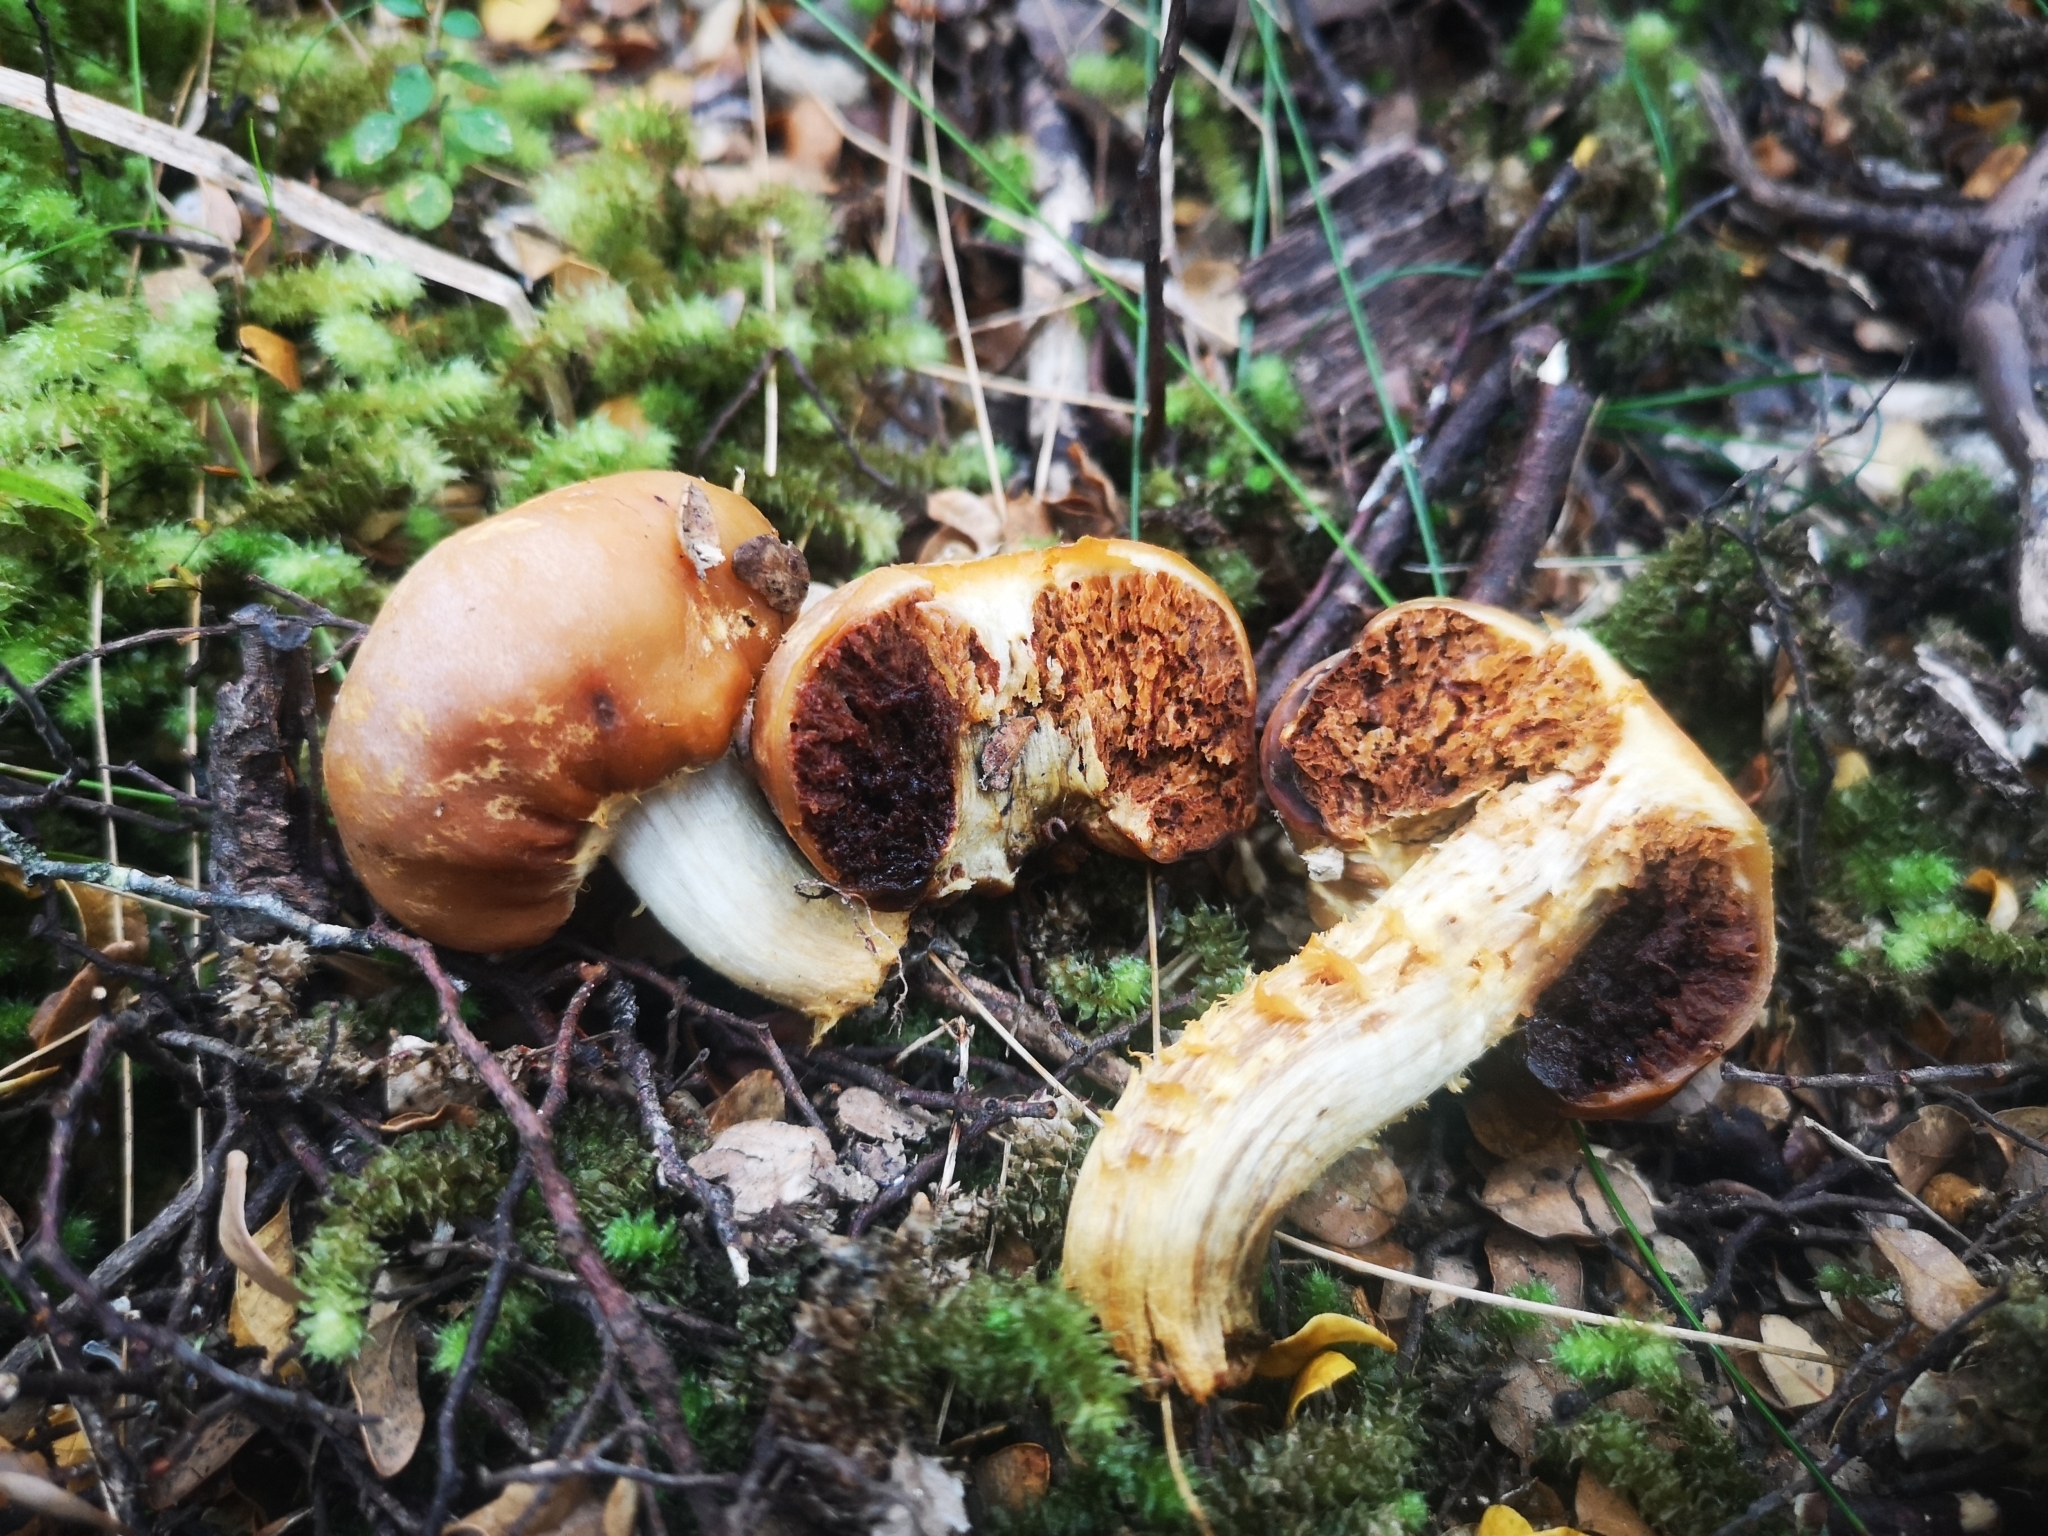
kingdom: Fungi
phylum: Basidiomycota
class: Agaricomycetes
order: Agaricales
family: Cortinariaceae
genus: Cortinarius
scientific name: Cortinarius epiphaeus
